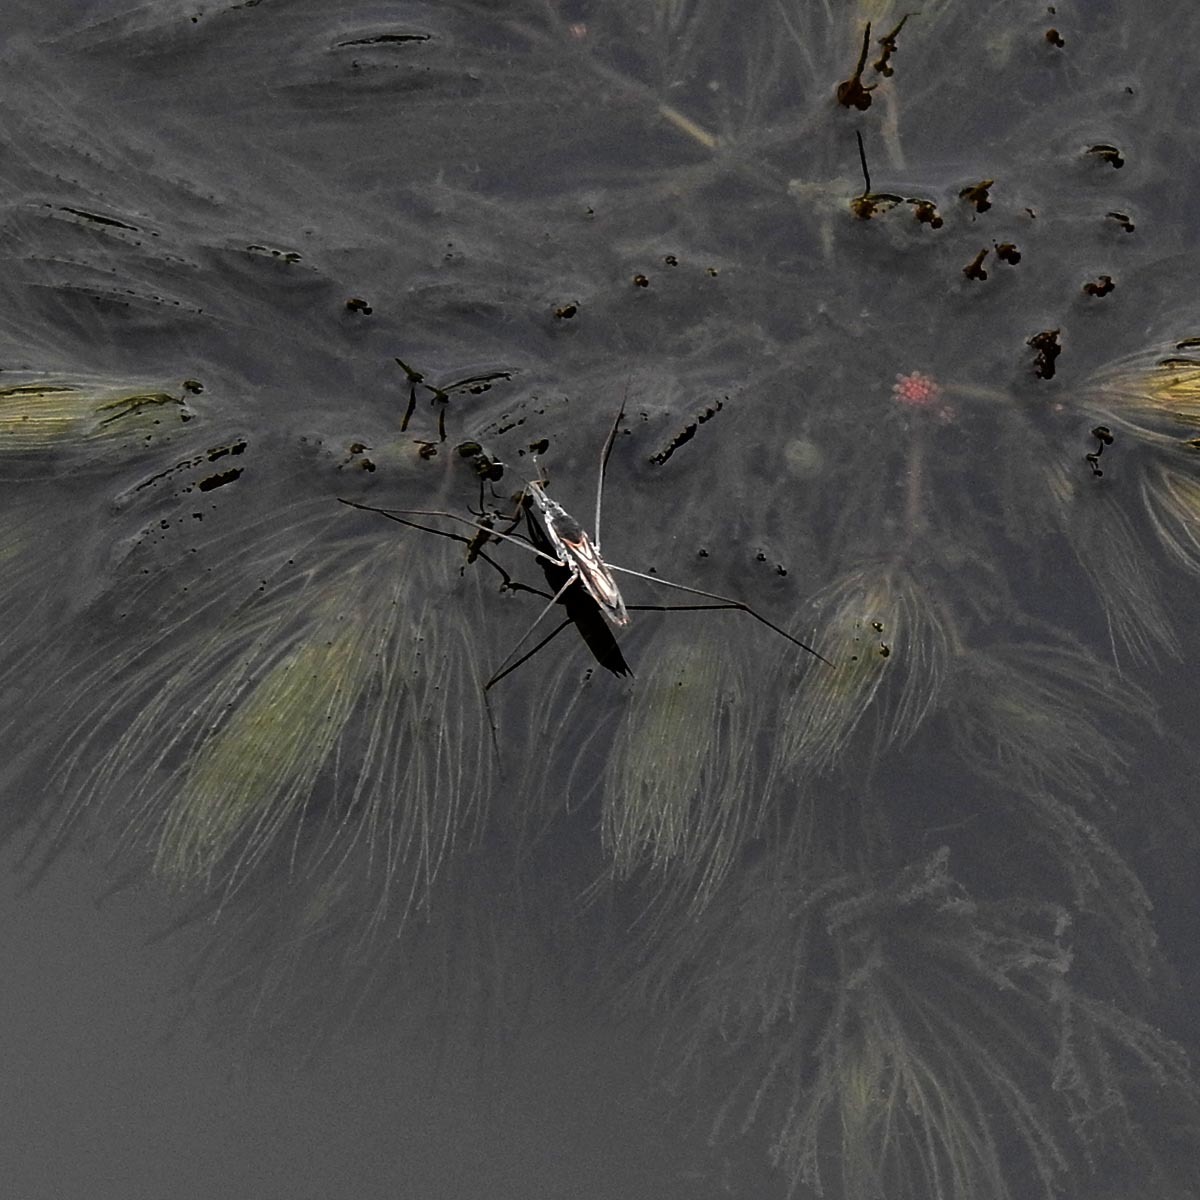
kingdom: Animalia
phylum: Arthropoda
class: Insecta
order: Hemiptera
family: Gerridae
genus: Aquarius
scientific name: Aquarius adelaidis
